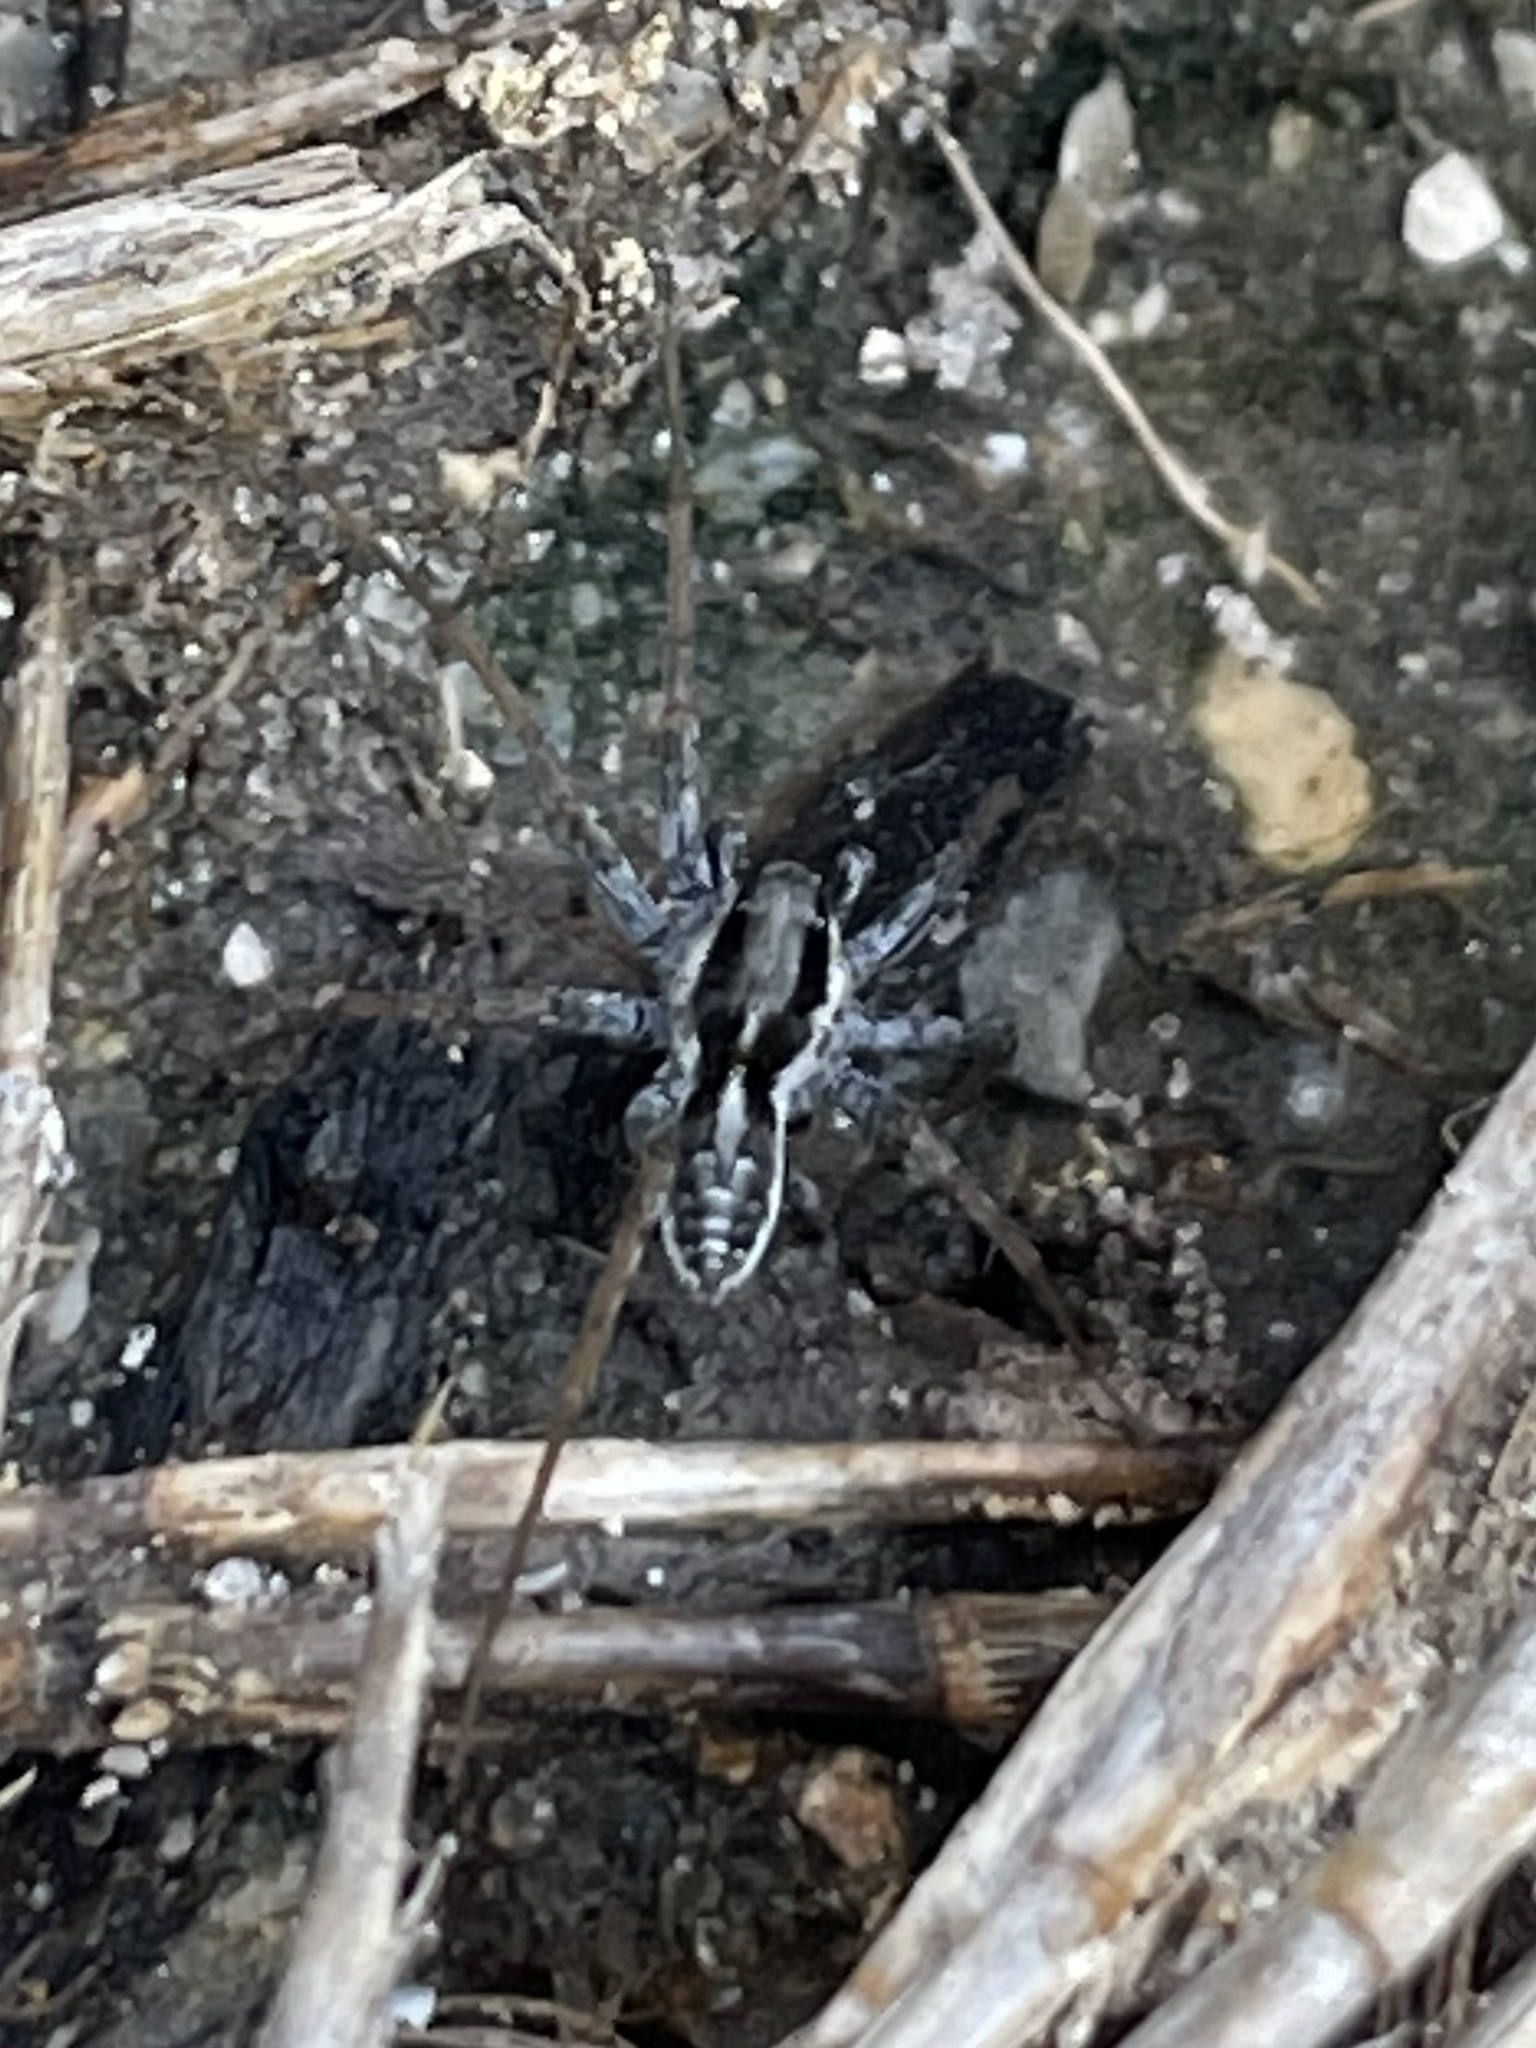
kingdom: Animalia
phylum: Arthropoda
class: Arachnida
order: Araneae
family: Lycosidae
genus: Pardosa
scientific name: Pardosa
